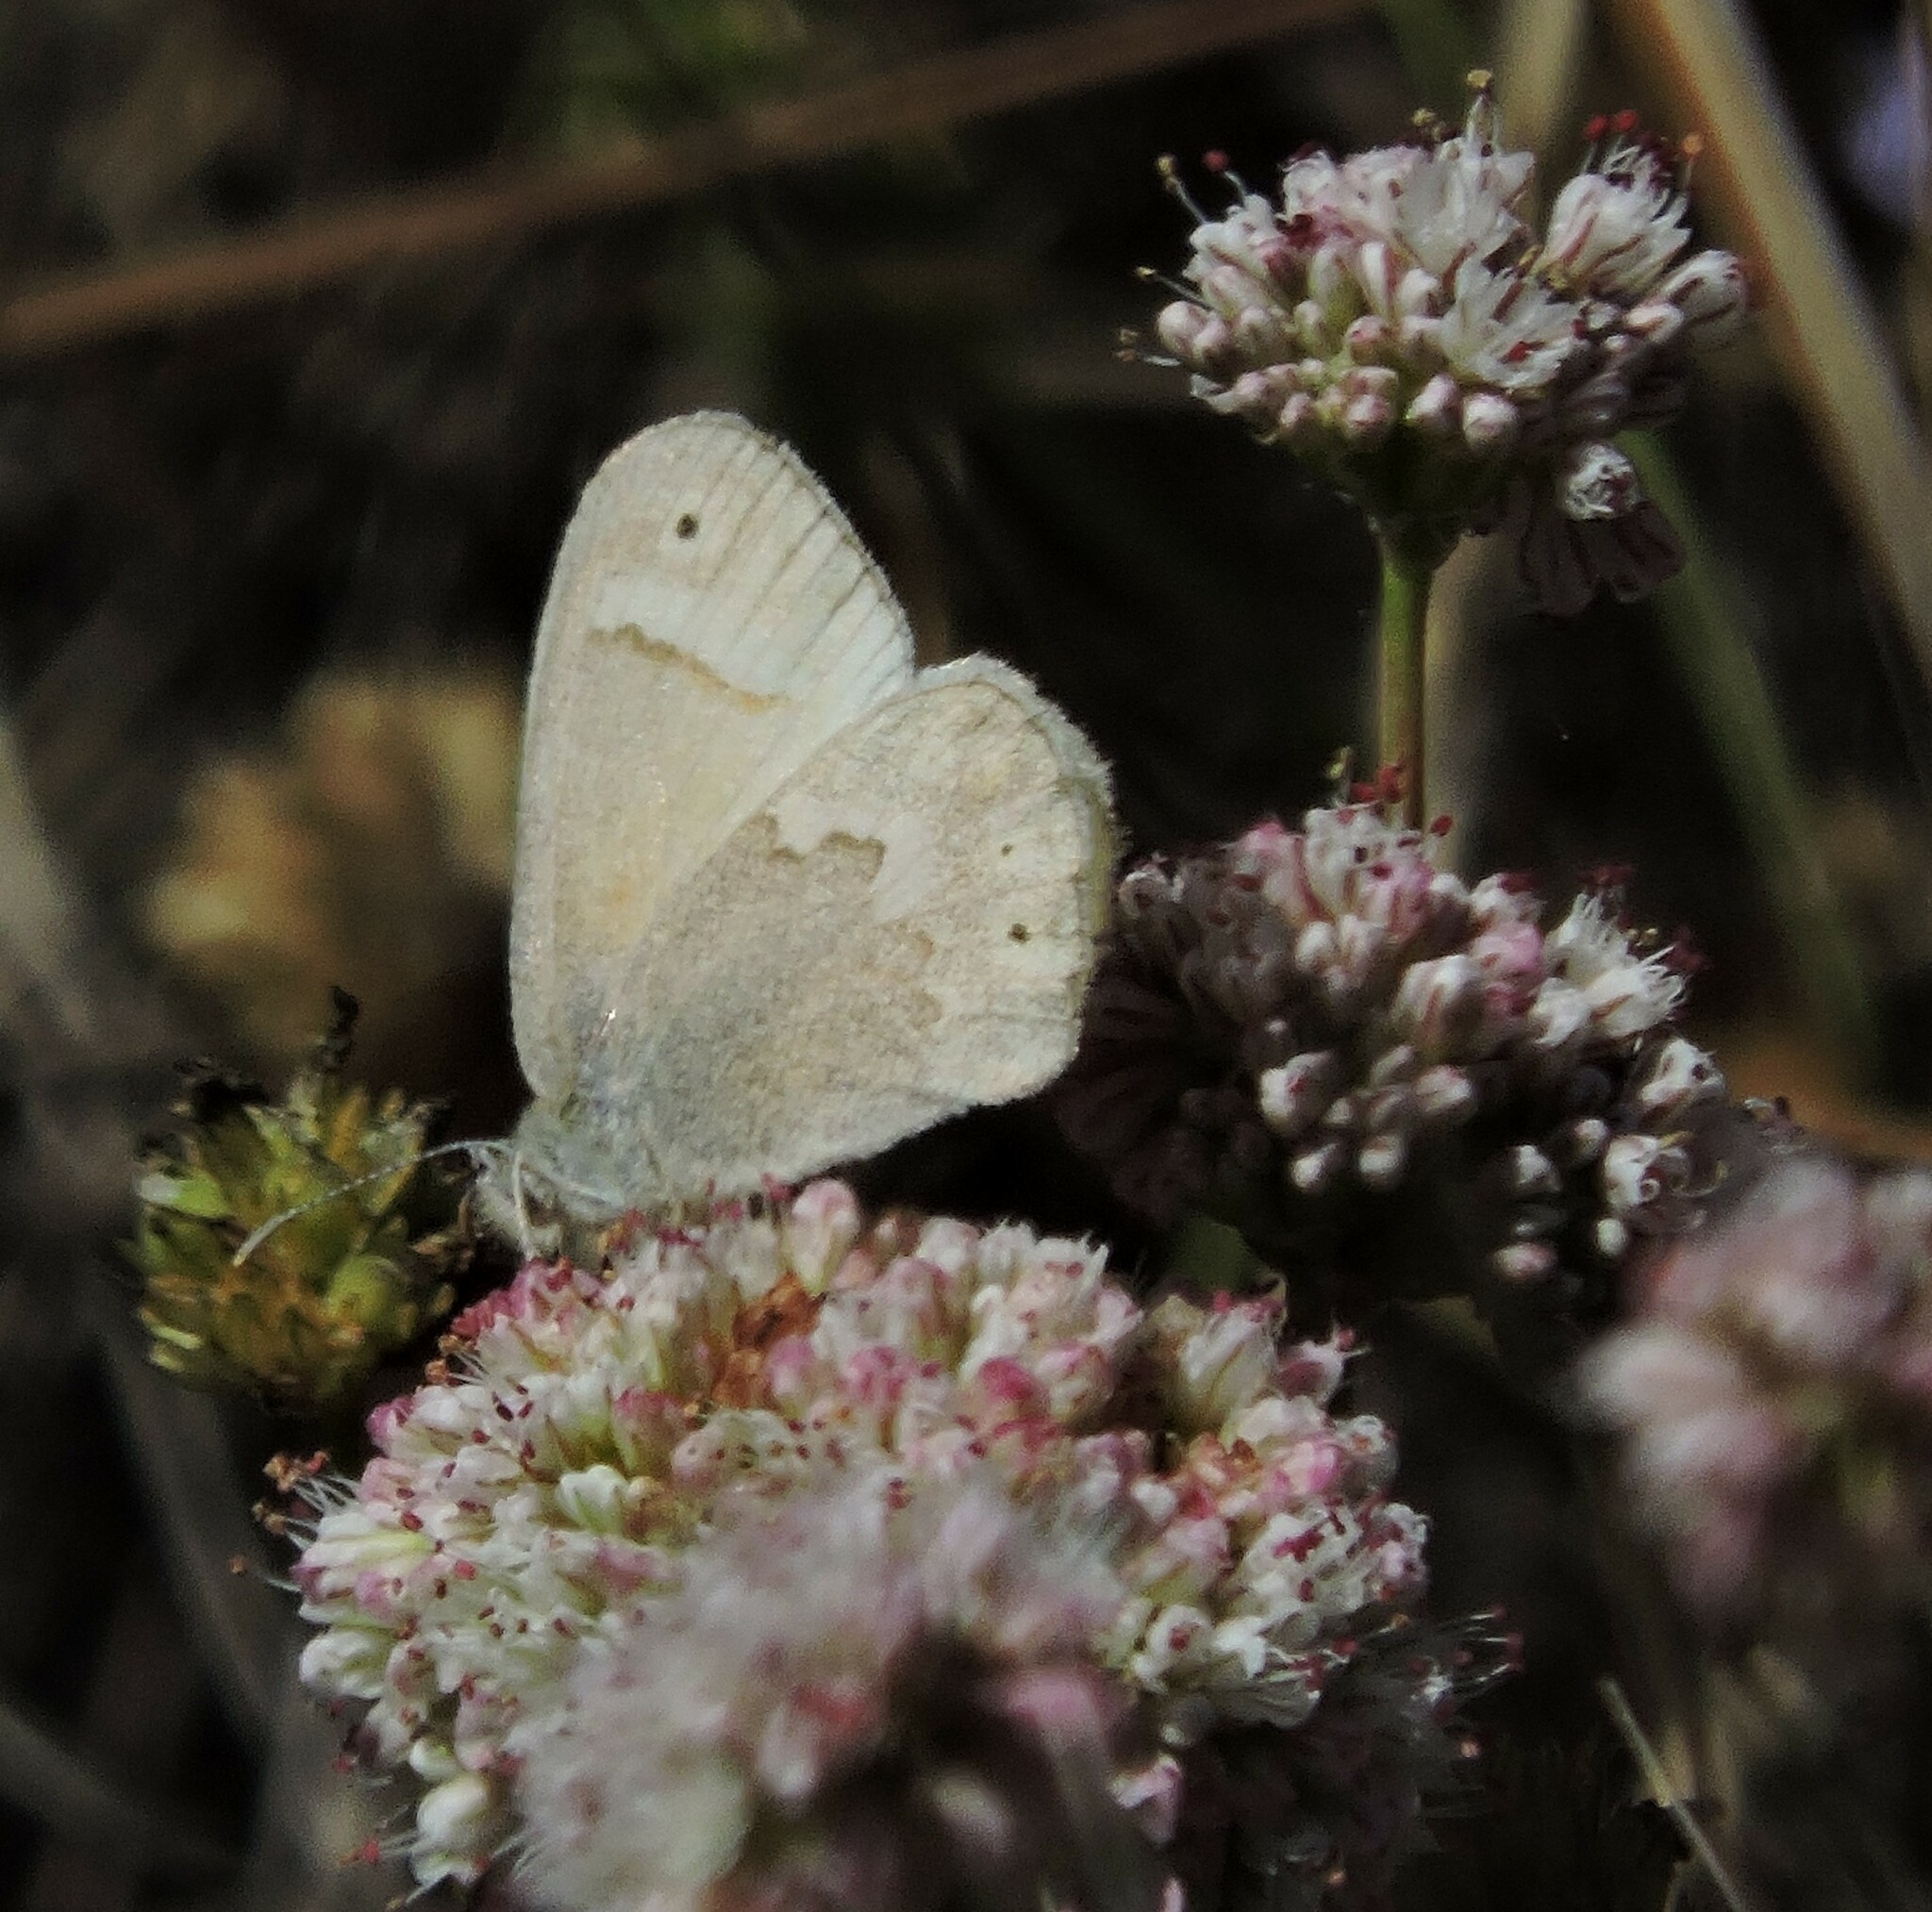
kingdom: Animalia
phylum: Arthropoda
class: Insecta
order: Lepidoptera
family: Nymphalidae
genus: Coenonympha
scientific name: Coenonympha california
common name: Common ringlet
